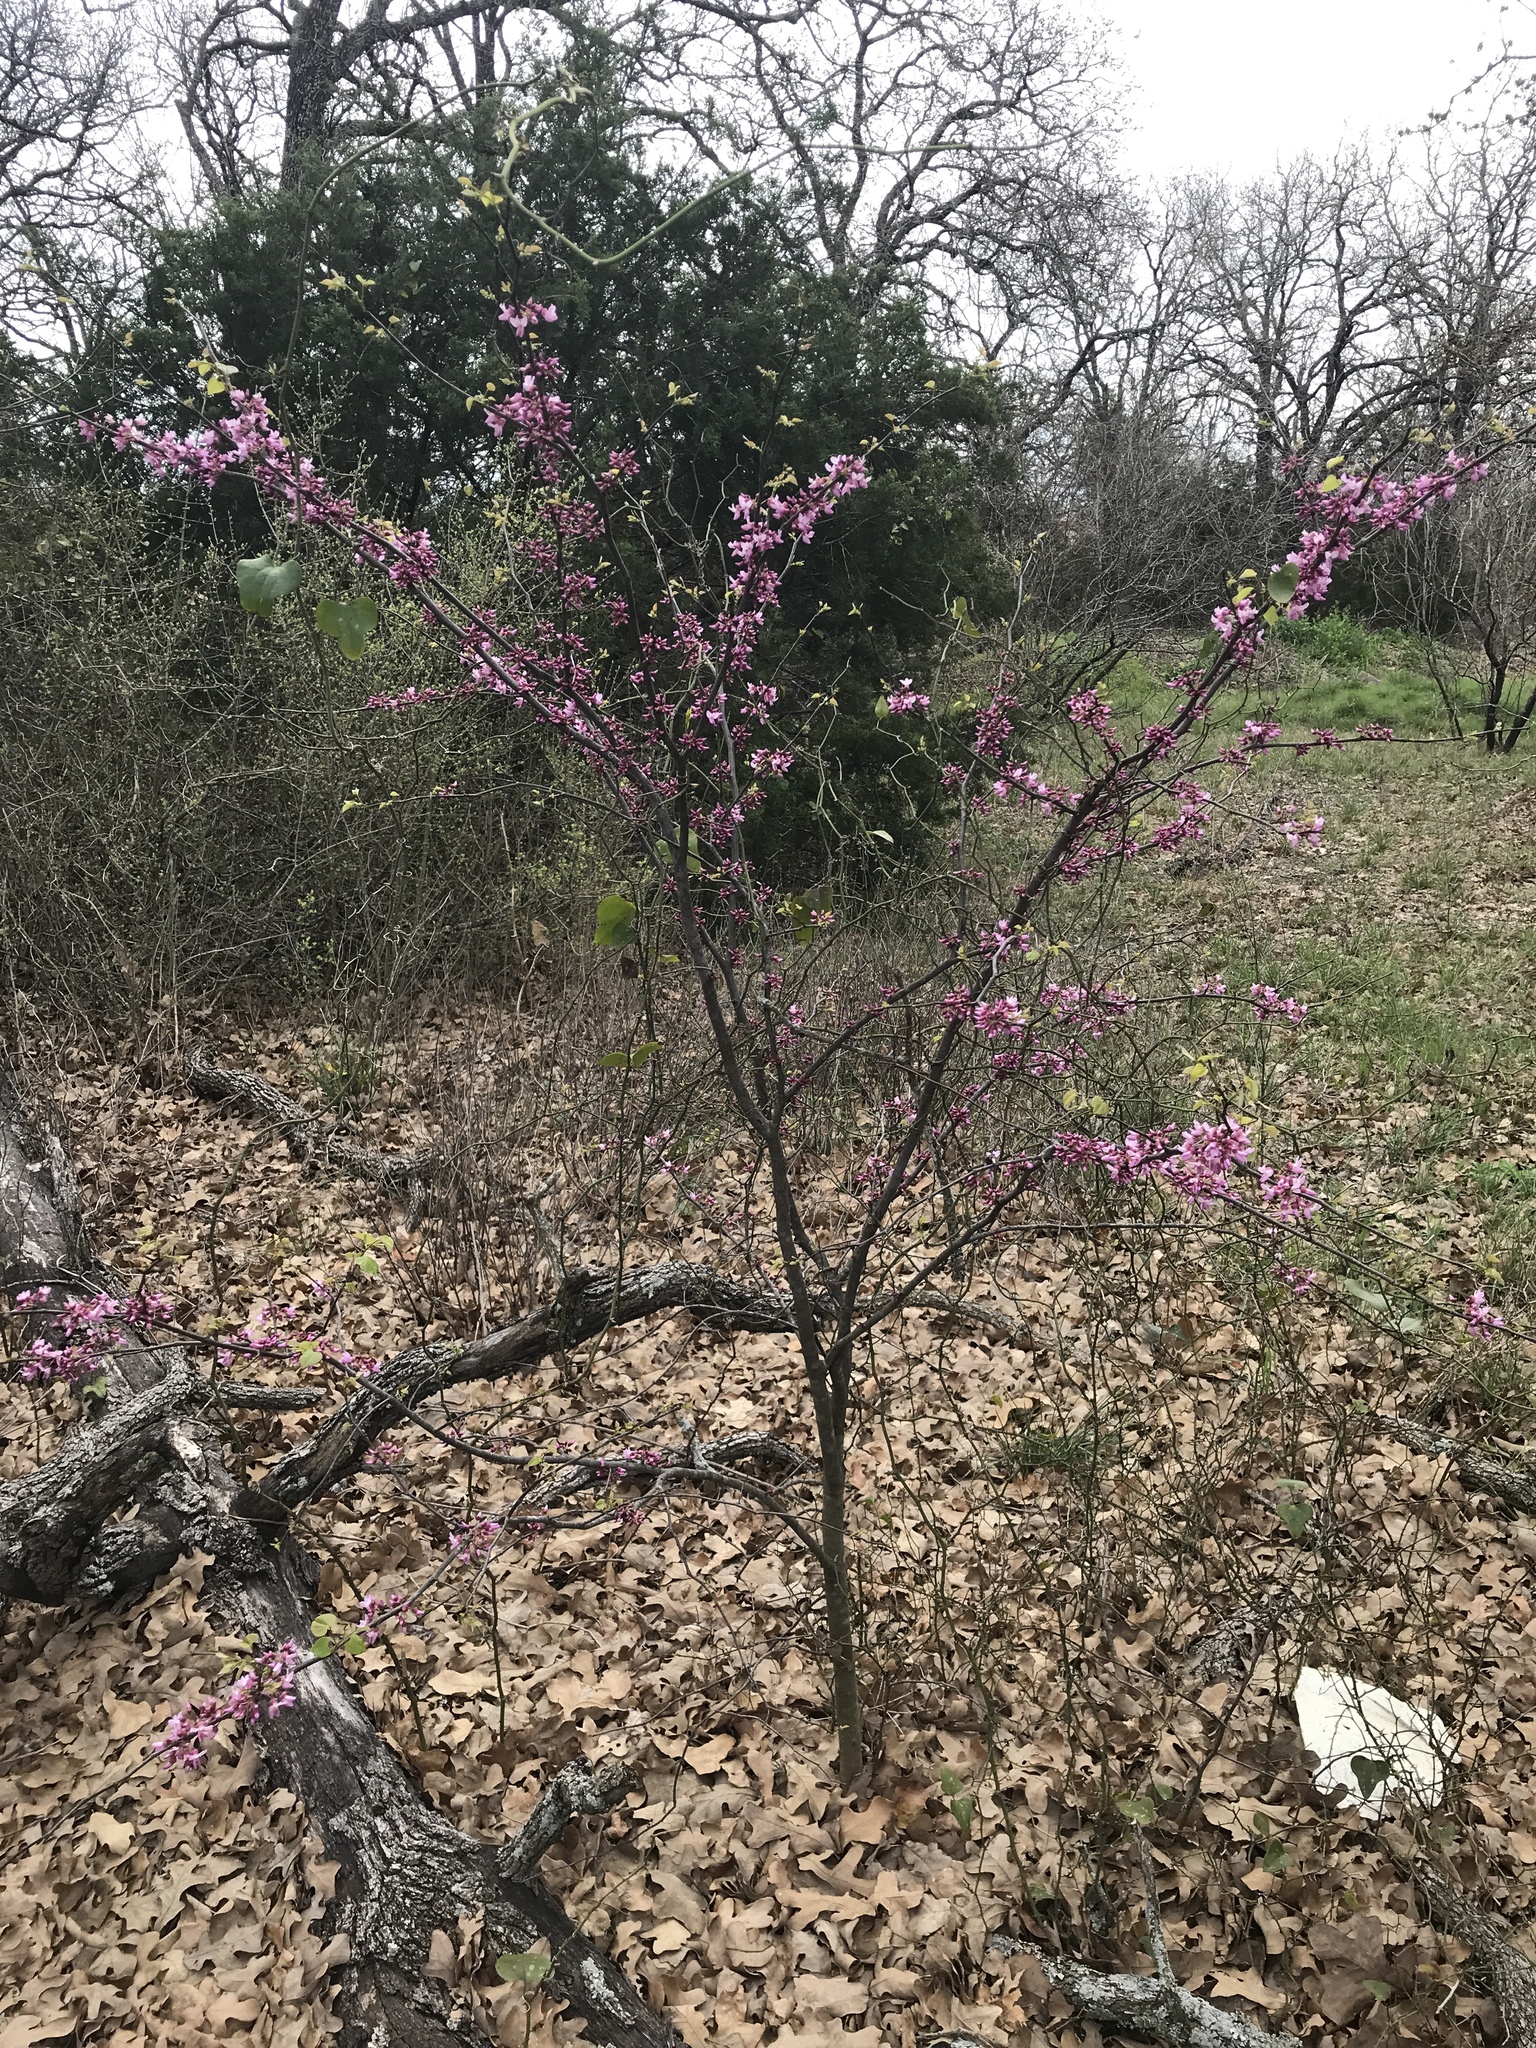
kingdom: Plantae
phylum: Tracheophyta
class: Magnoliopsida
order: Fabales
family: Fabaceae
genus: Cercis
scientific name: Cercis canadensis
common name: Eastern redbud
